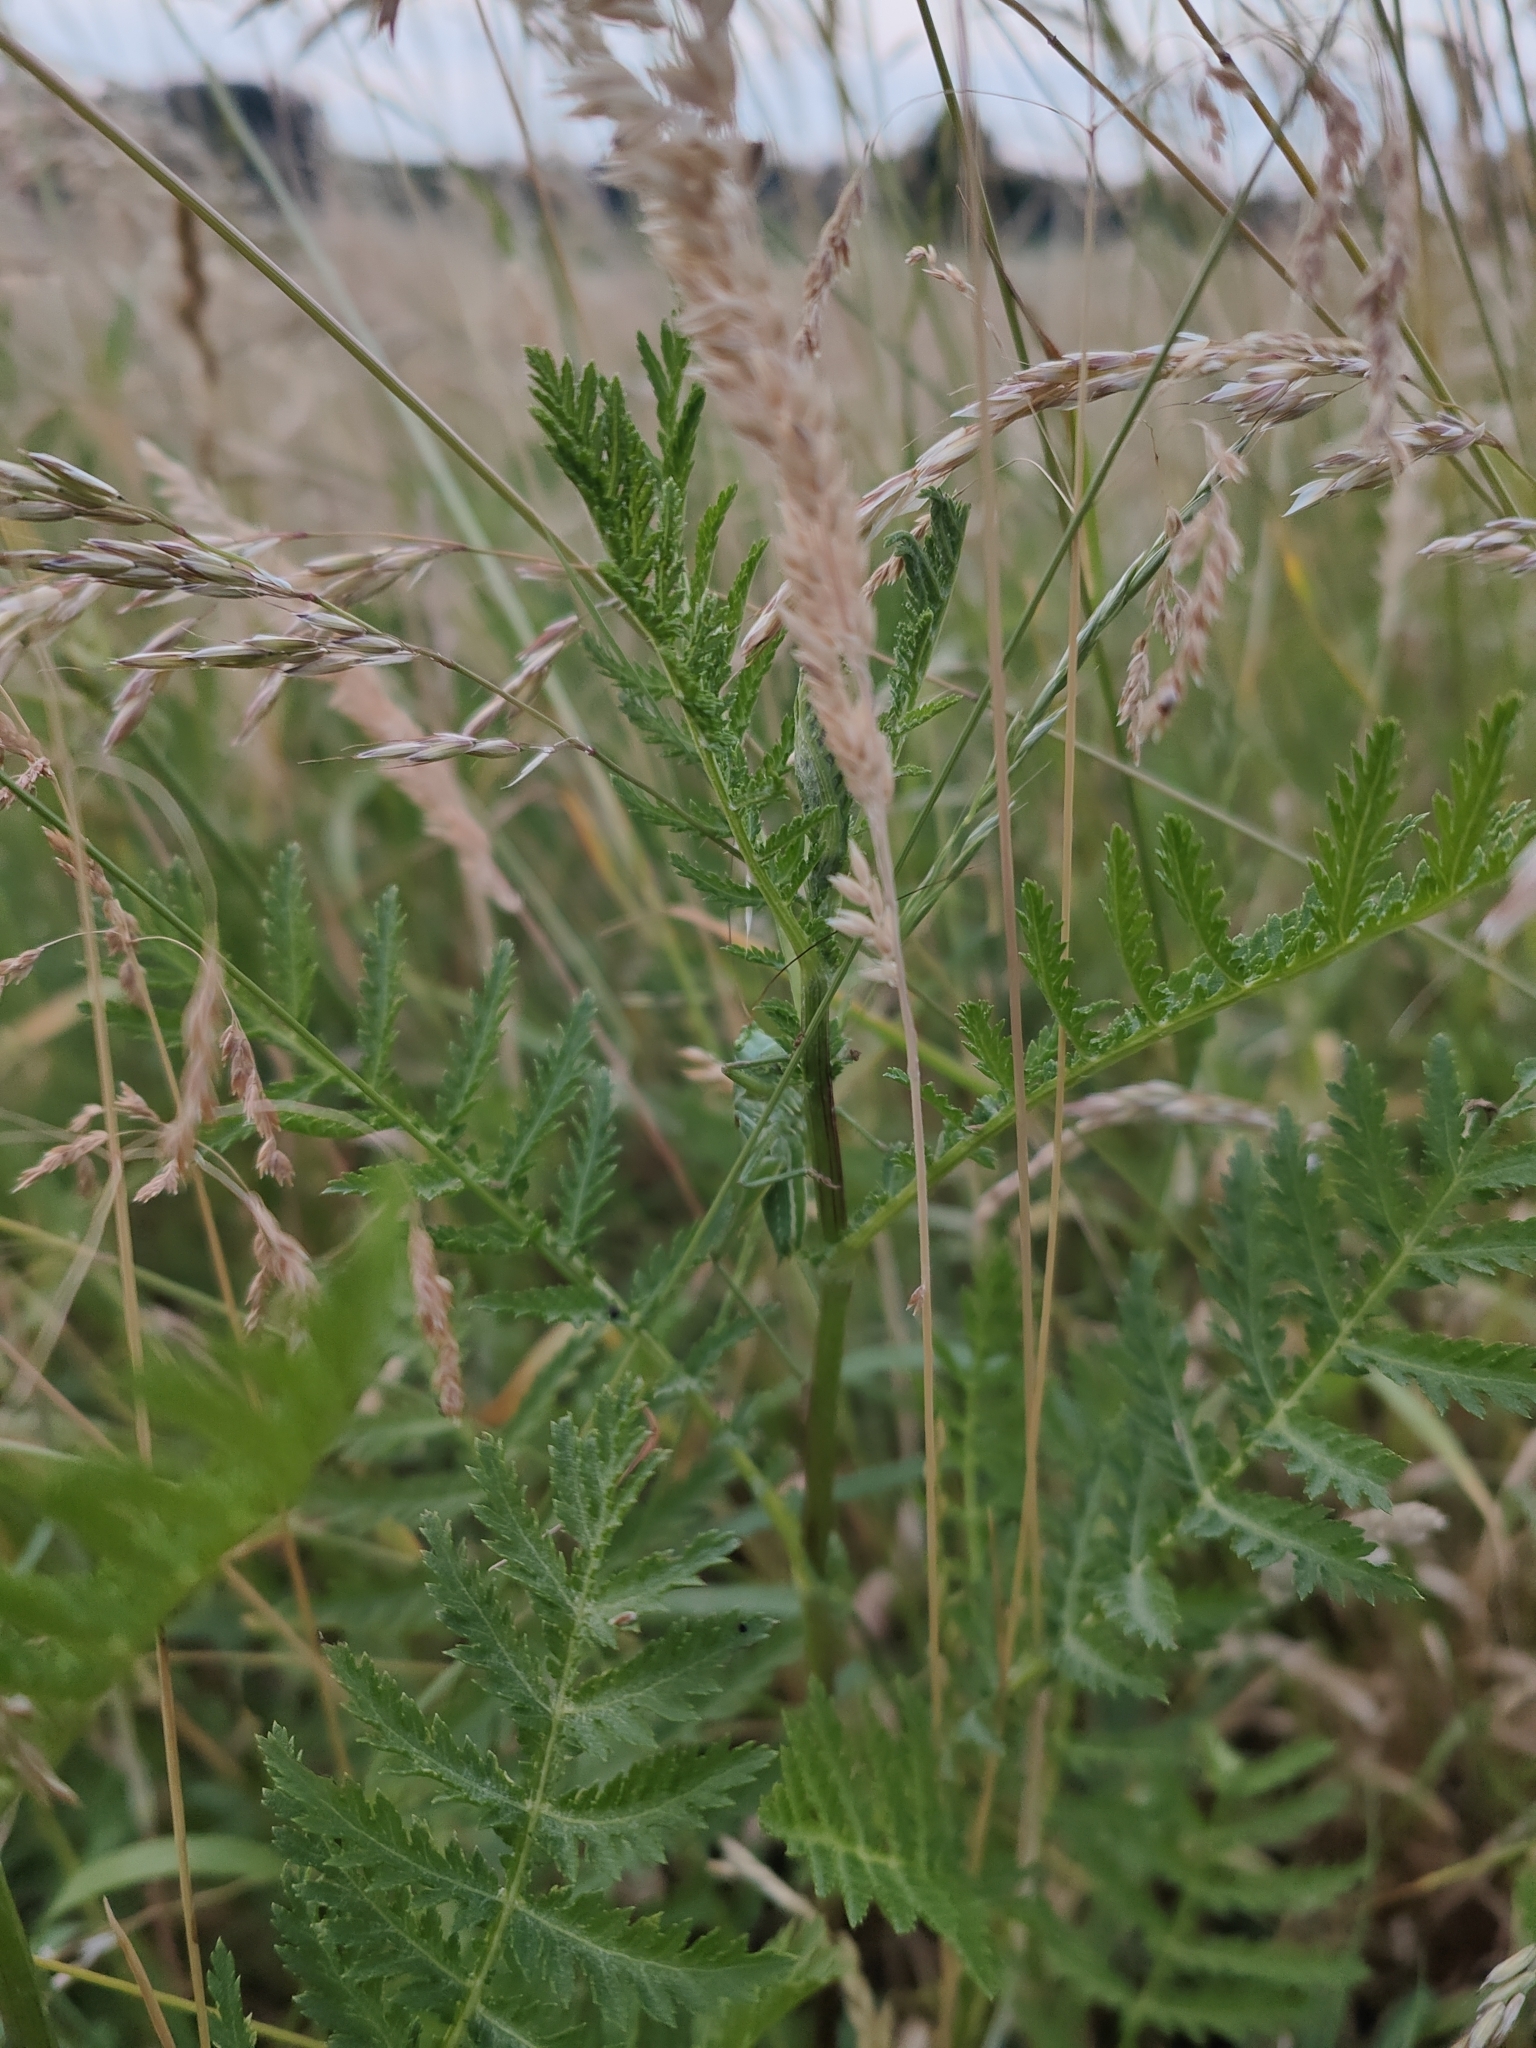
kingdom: Animalia
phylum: Arthropoda
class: Insecta
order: Orthoptera
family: Tettigoniidae
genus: Tettigonia
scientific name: Tettigonia viridissima
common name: Great green bush-cricket
